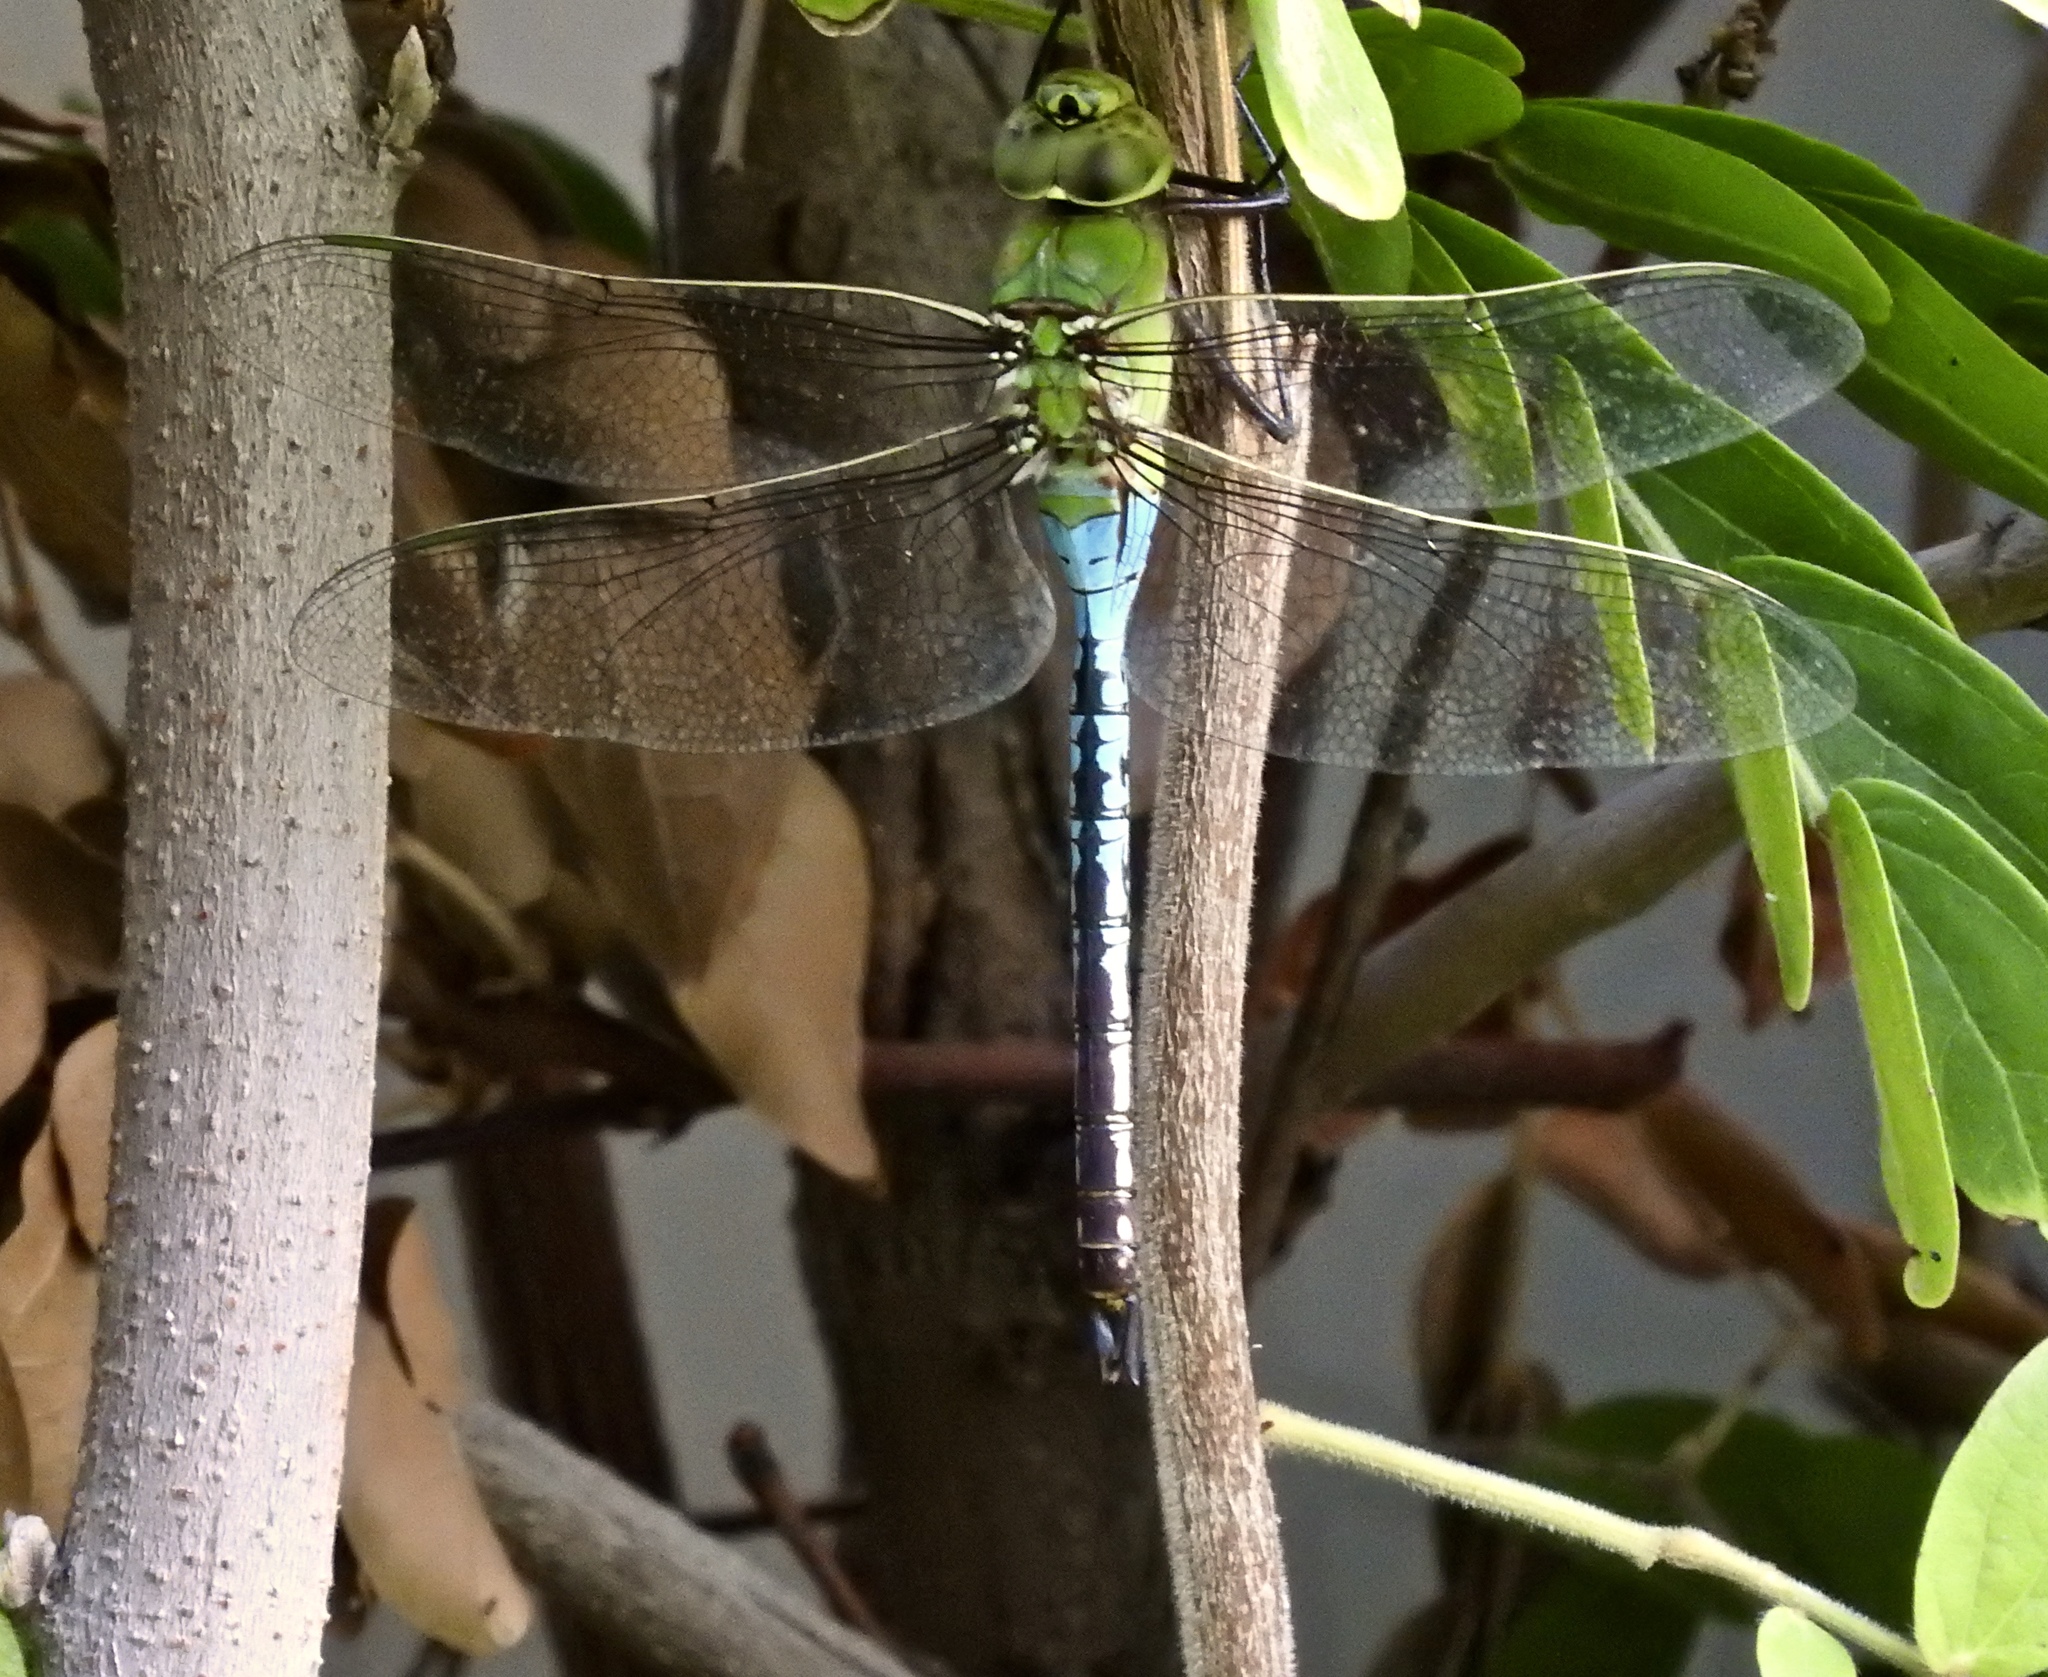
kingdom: Animalia
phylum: Arthropoda
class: Insecta
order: Odonata
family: Aeshnidae
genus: Anax
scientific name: Anax junius
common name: Common green darner
